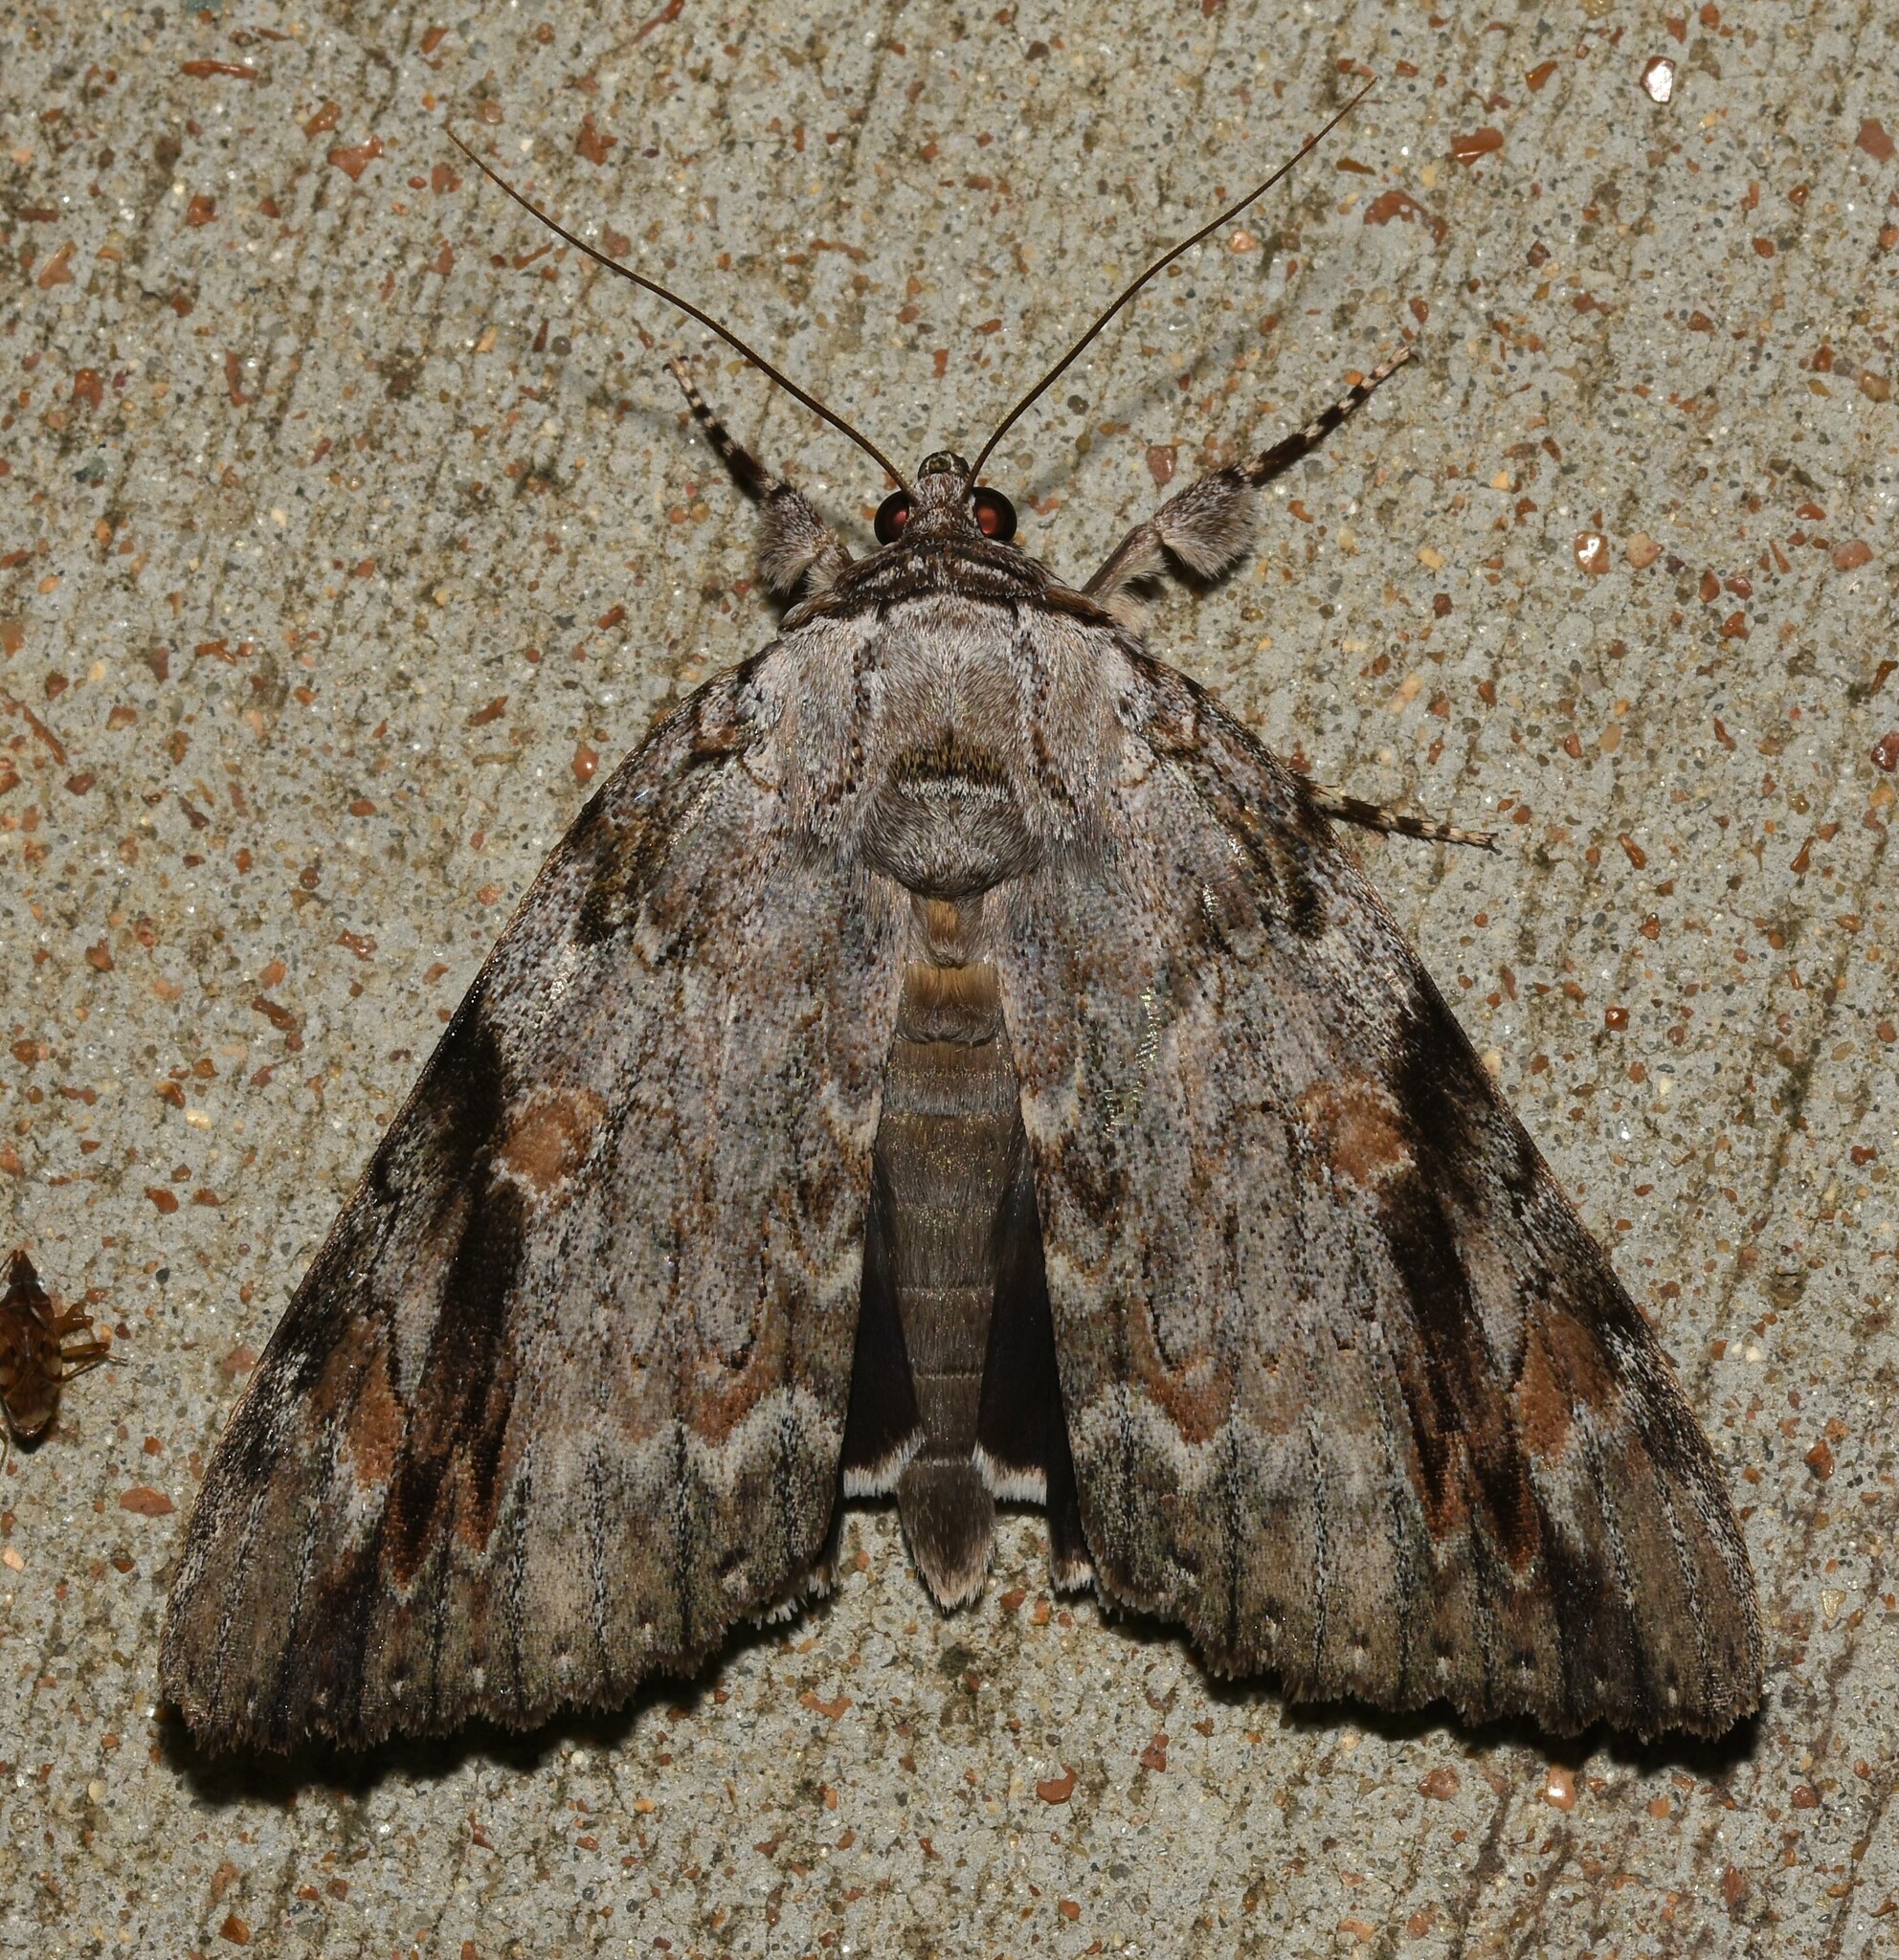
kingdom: Animalia
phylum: Arthropoda
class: Insecta
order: Lepidoptera
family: Erebidae
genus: Catocala
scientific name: Catocala maestosa
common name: Sad underwing
